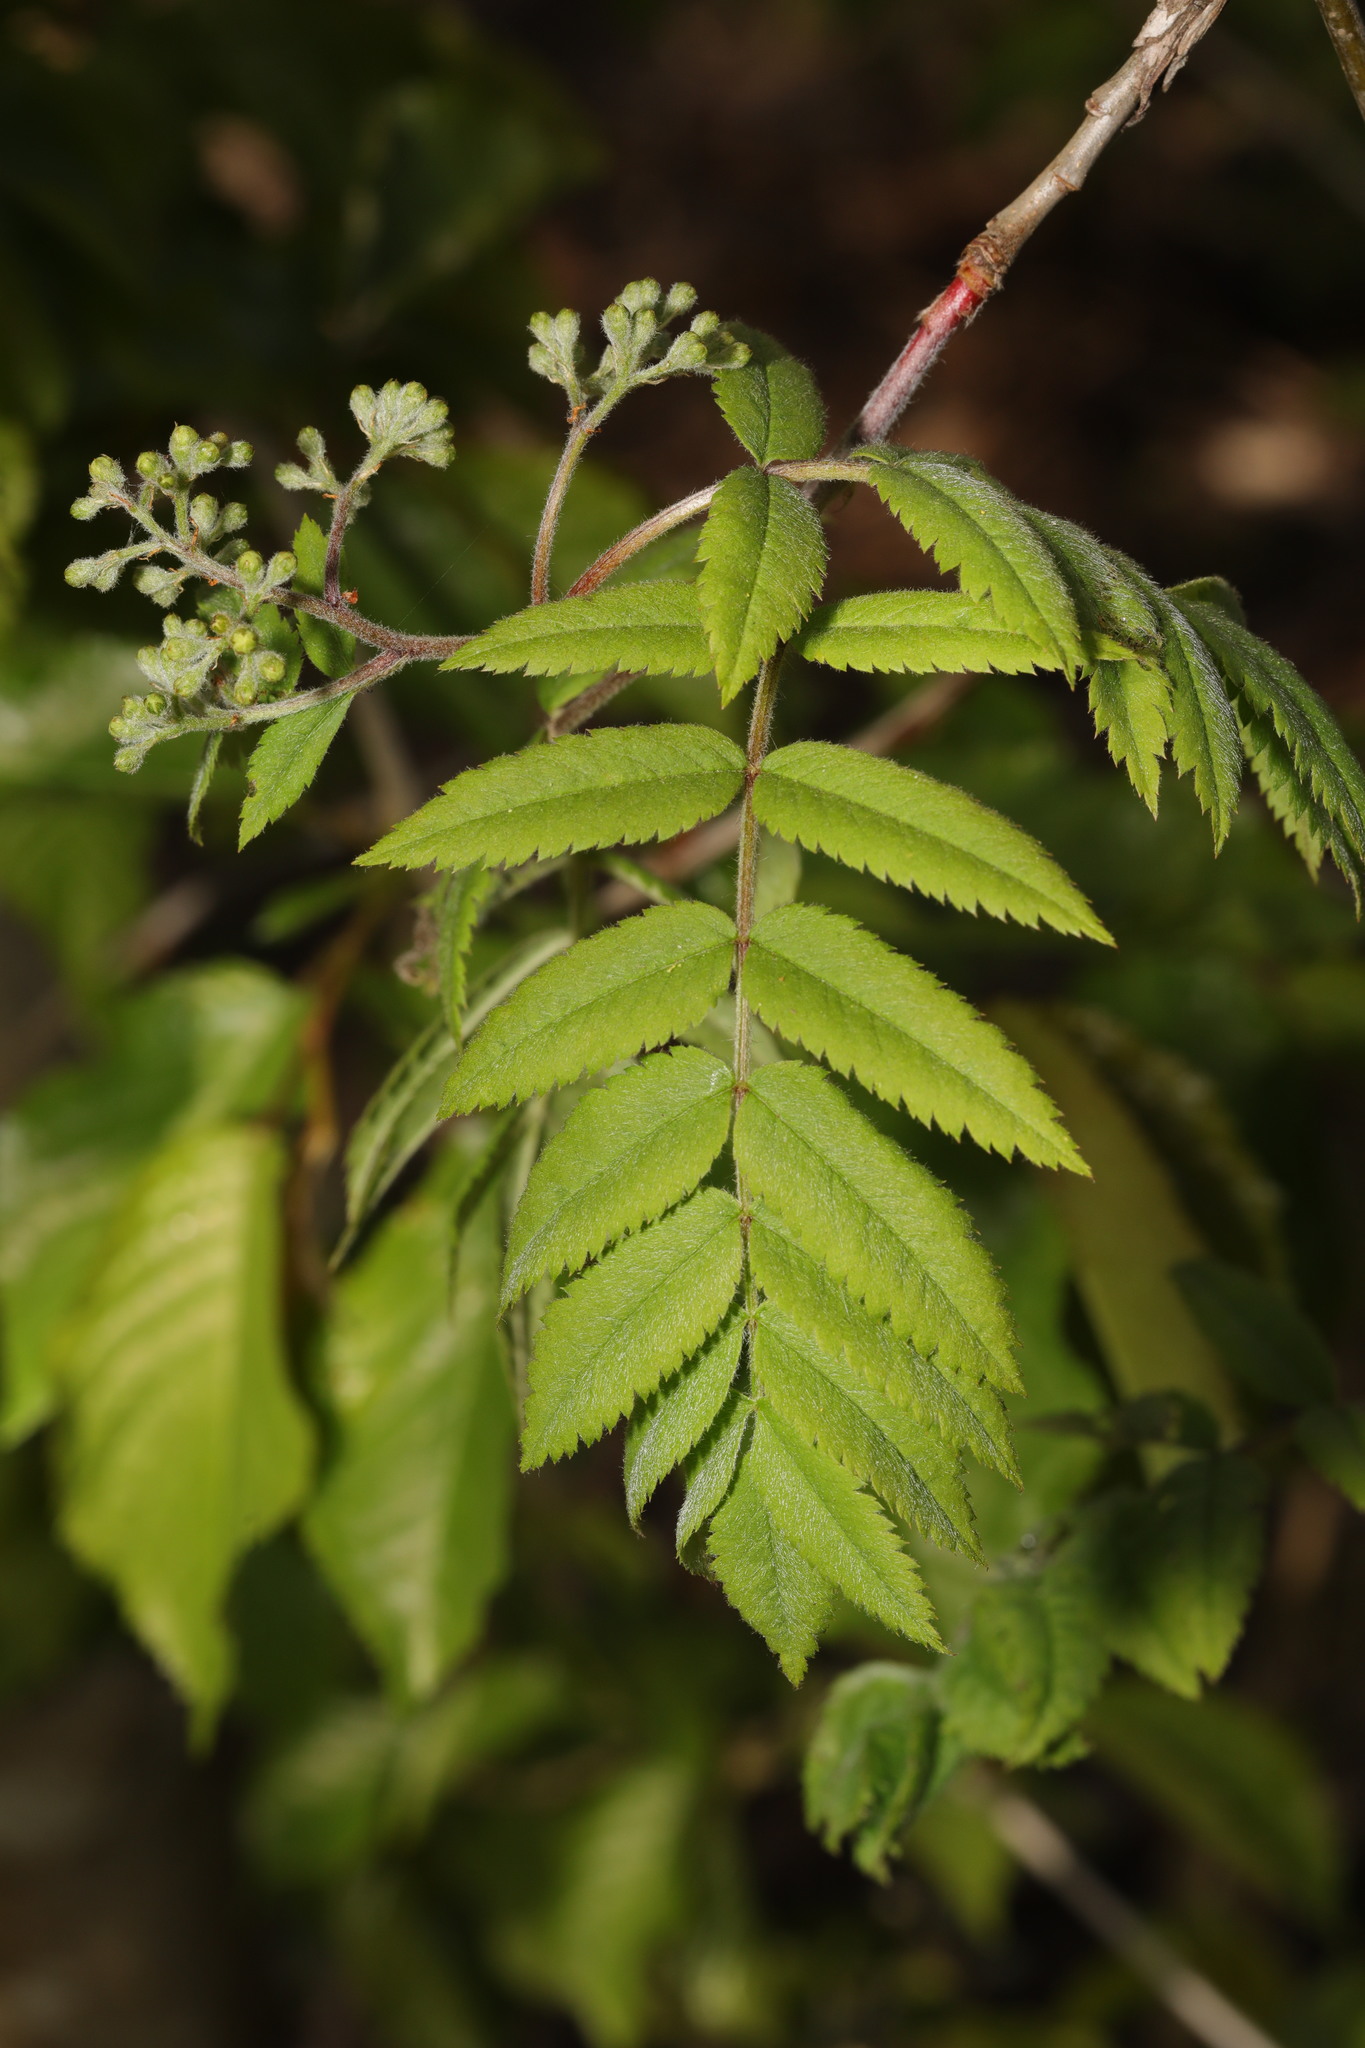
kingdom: Plantae
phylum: Tracheophyta
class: Magnoliopsida
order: Rosales
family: Rosaceae
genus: Sorbus
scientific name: Sorbus aucuparia
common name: Rowan
